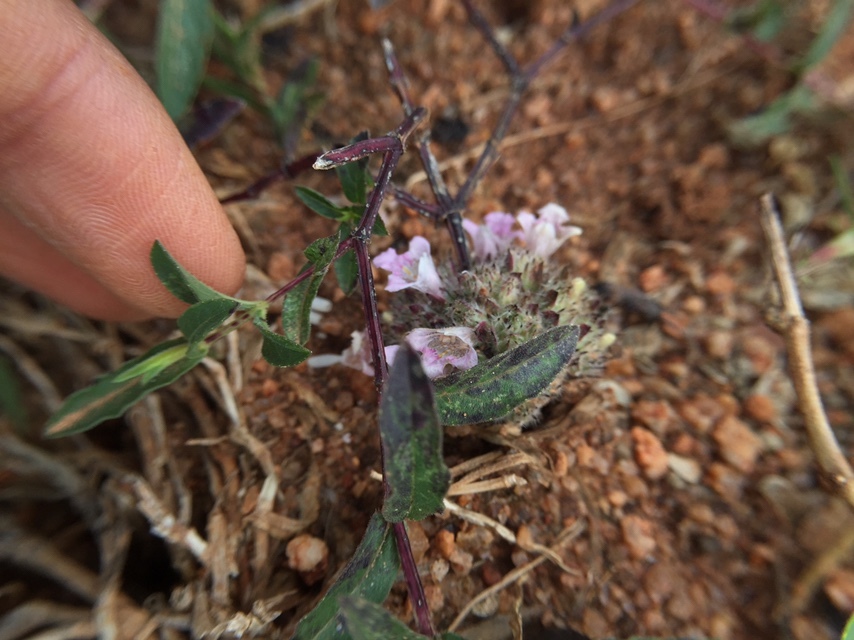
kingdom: Plantae
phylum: Tracheophyta
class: Magnoliopsida
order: Lamiales
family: Acanthaceae
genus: Lepidagathis
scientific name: Lepidagathis cristata
